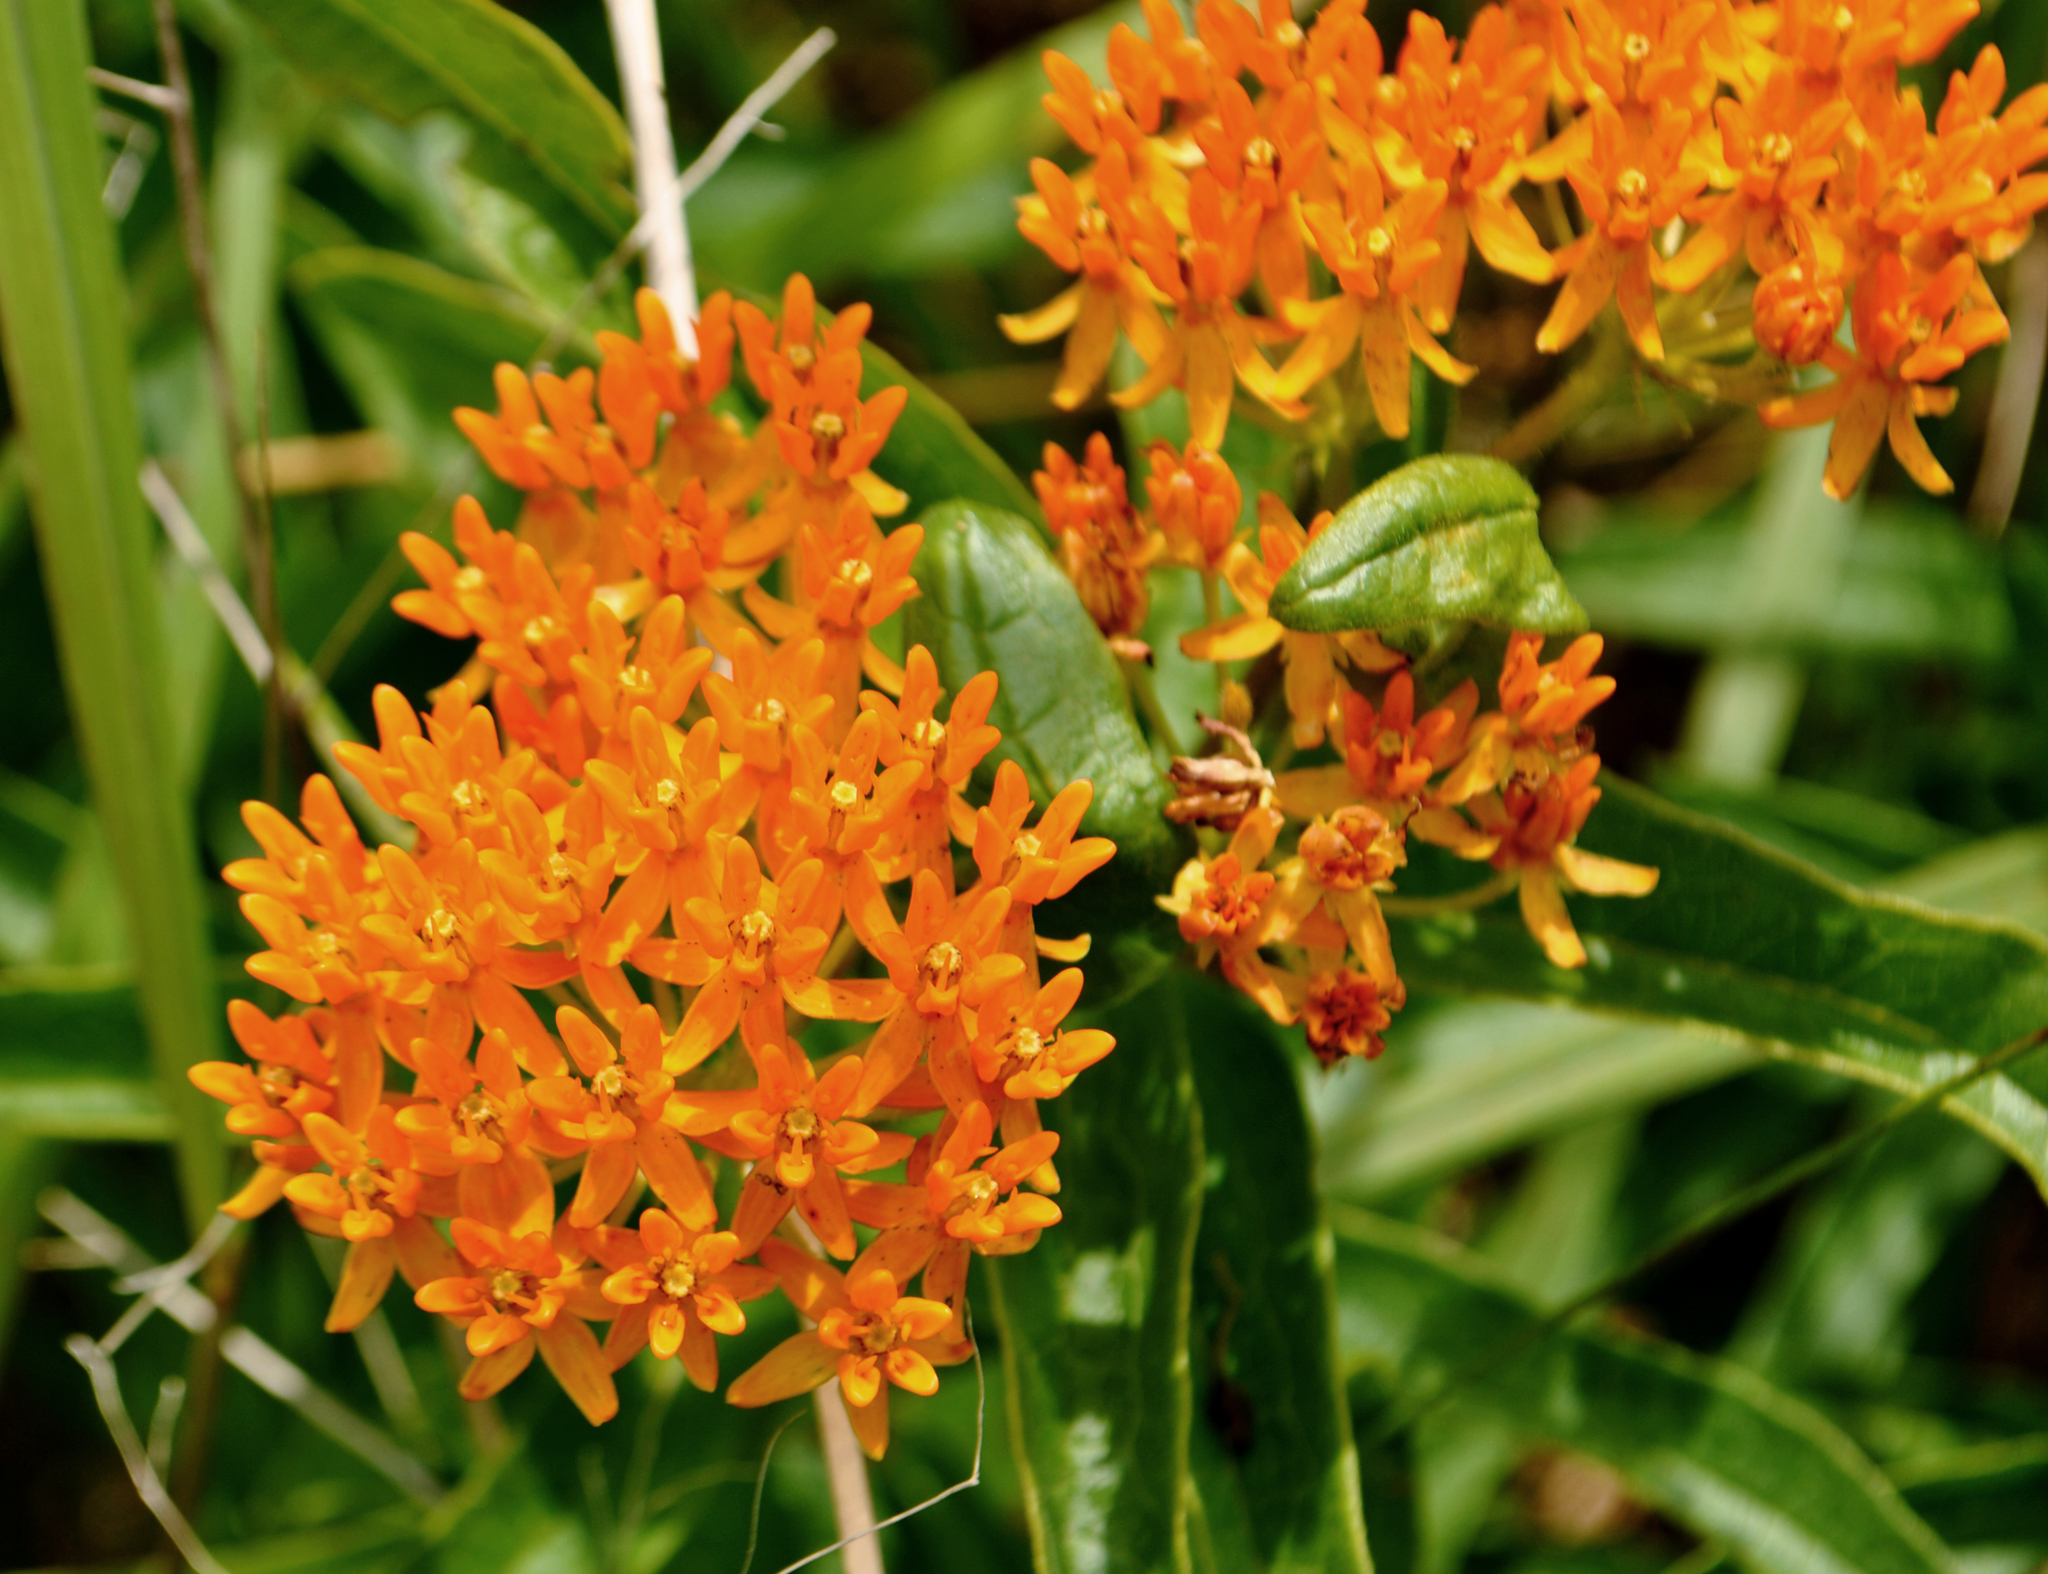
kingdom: Plantae
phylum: Tracheophyta
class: Magnoliopsida
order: Gentianales
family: Apocynaceae
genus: Asclepias
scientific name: Asclepias tuberosa
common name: Butterfly milkweed
